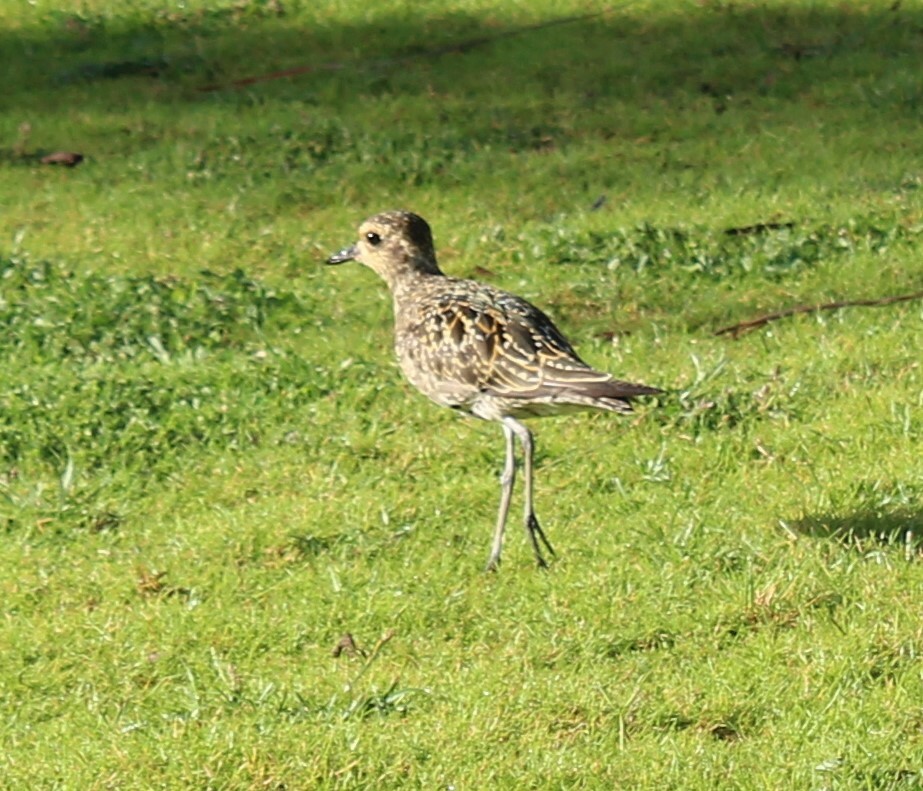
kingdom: Animalia
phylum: Chordata
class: Aves
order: Charadriiformes
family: Charadriidae
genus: Pluvialis
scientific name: Pluvialis fulva
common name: Pacific golden plover
